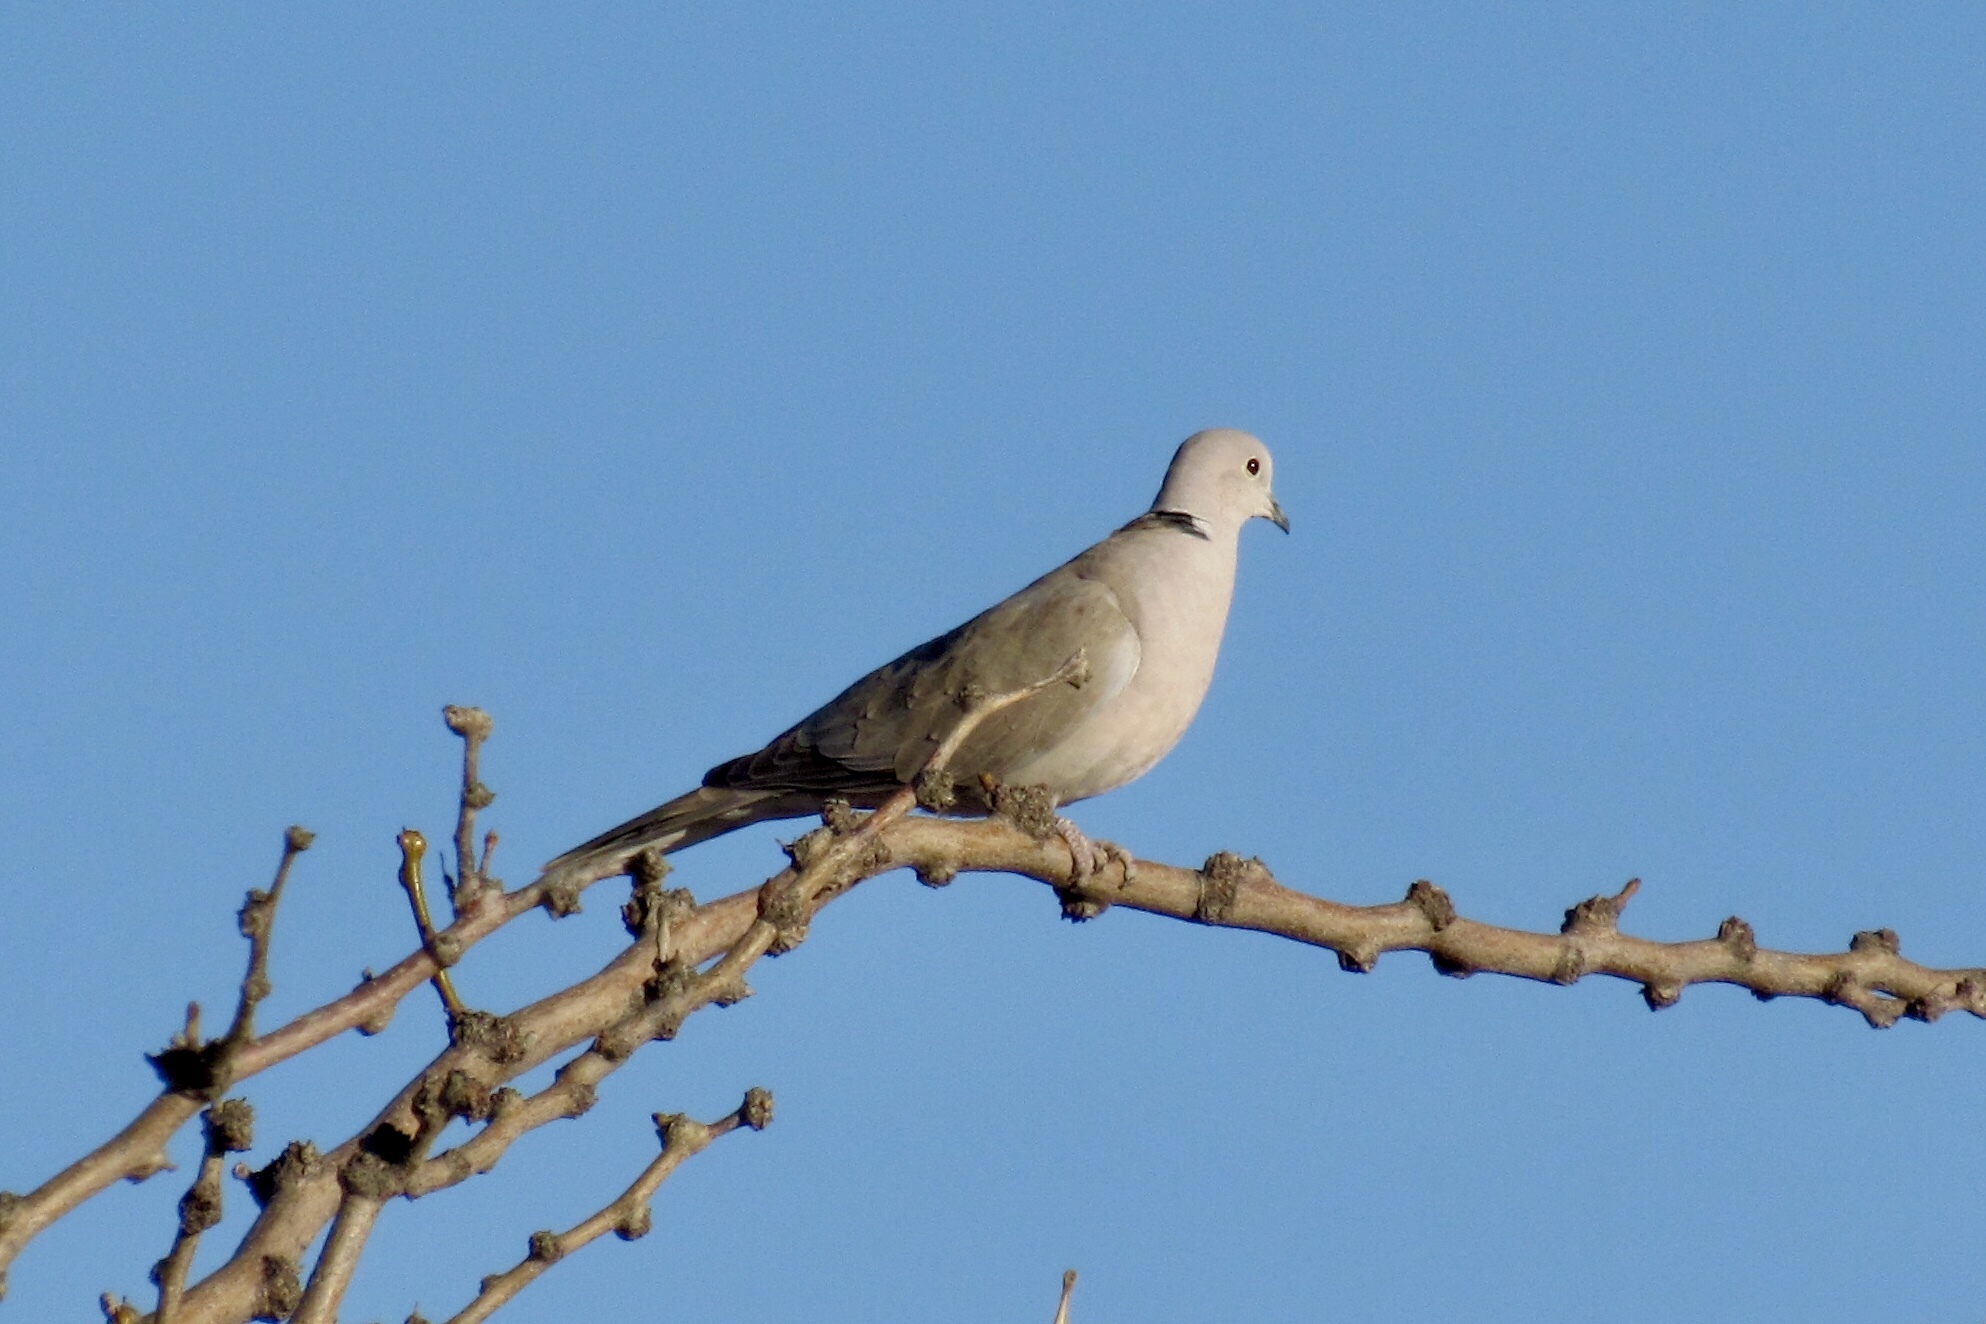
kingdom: Animalia
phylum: Chordata
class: Aves
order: Columbiformes
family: Columbidae
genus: Streptopelia
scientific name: Streptopelia decaocto
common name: Eurasian collared dove
